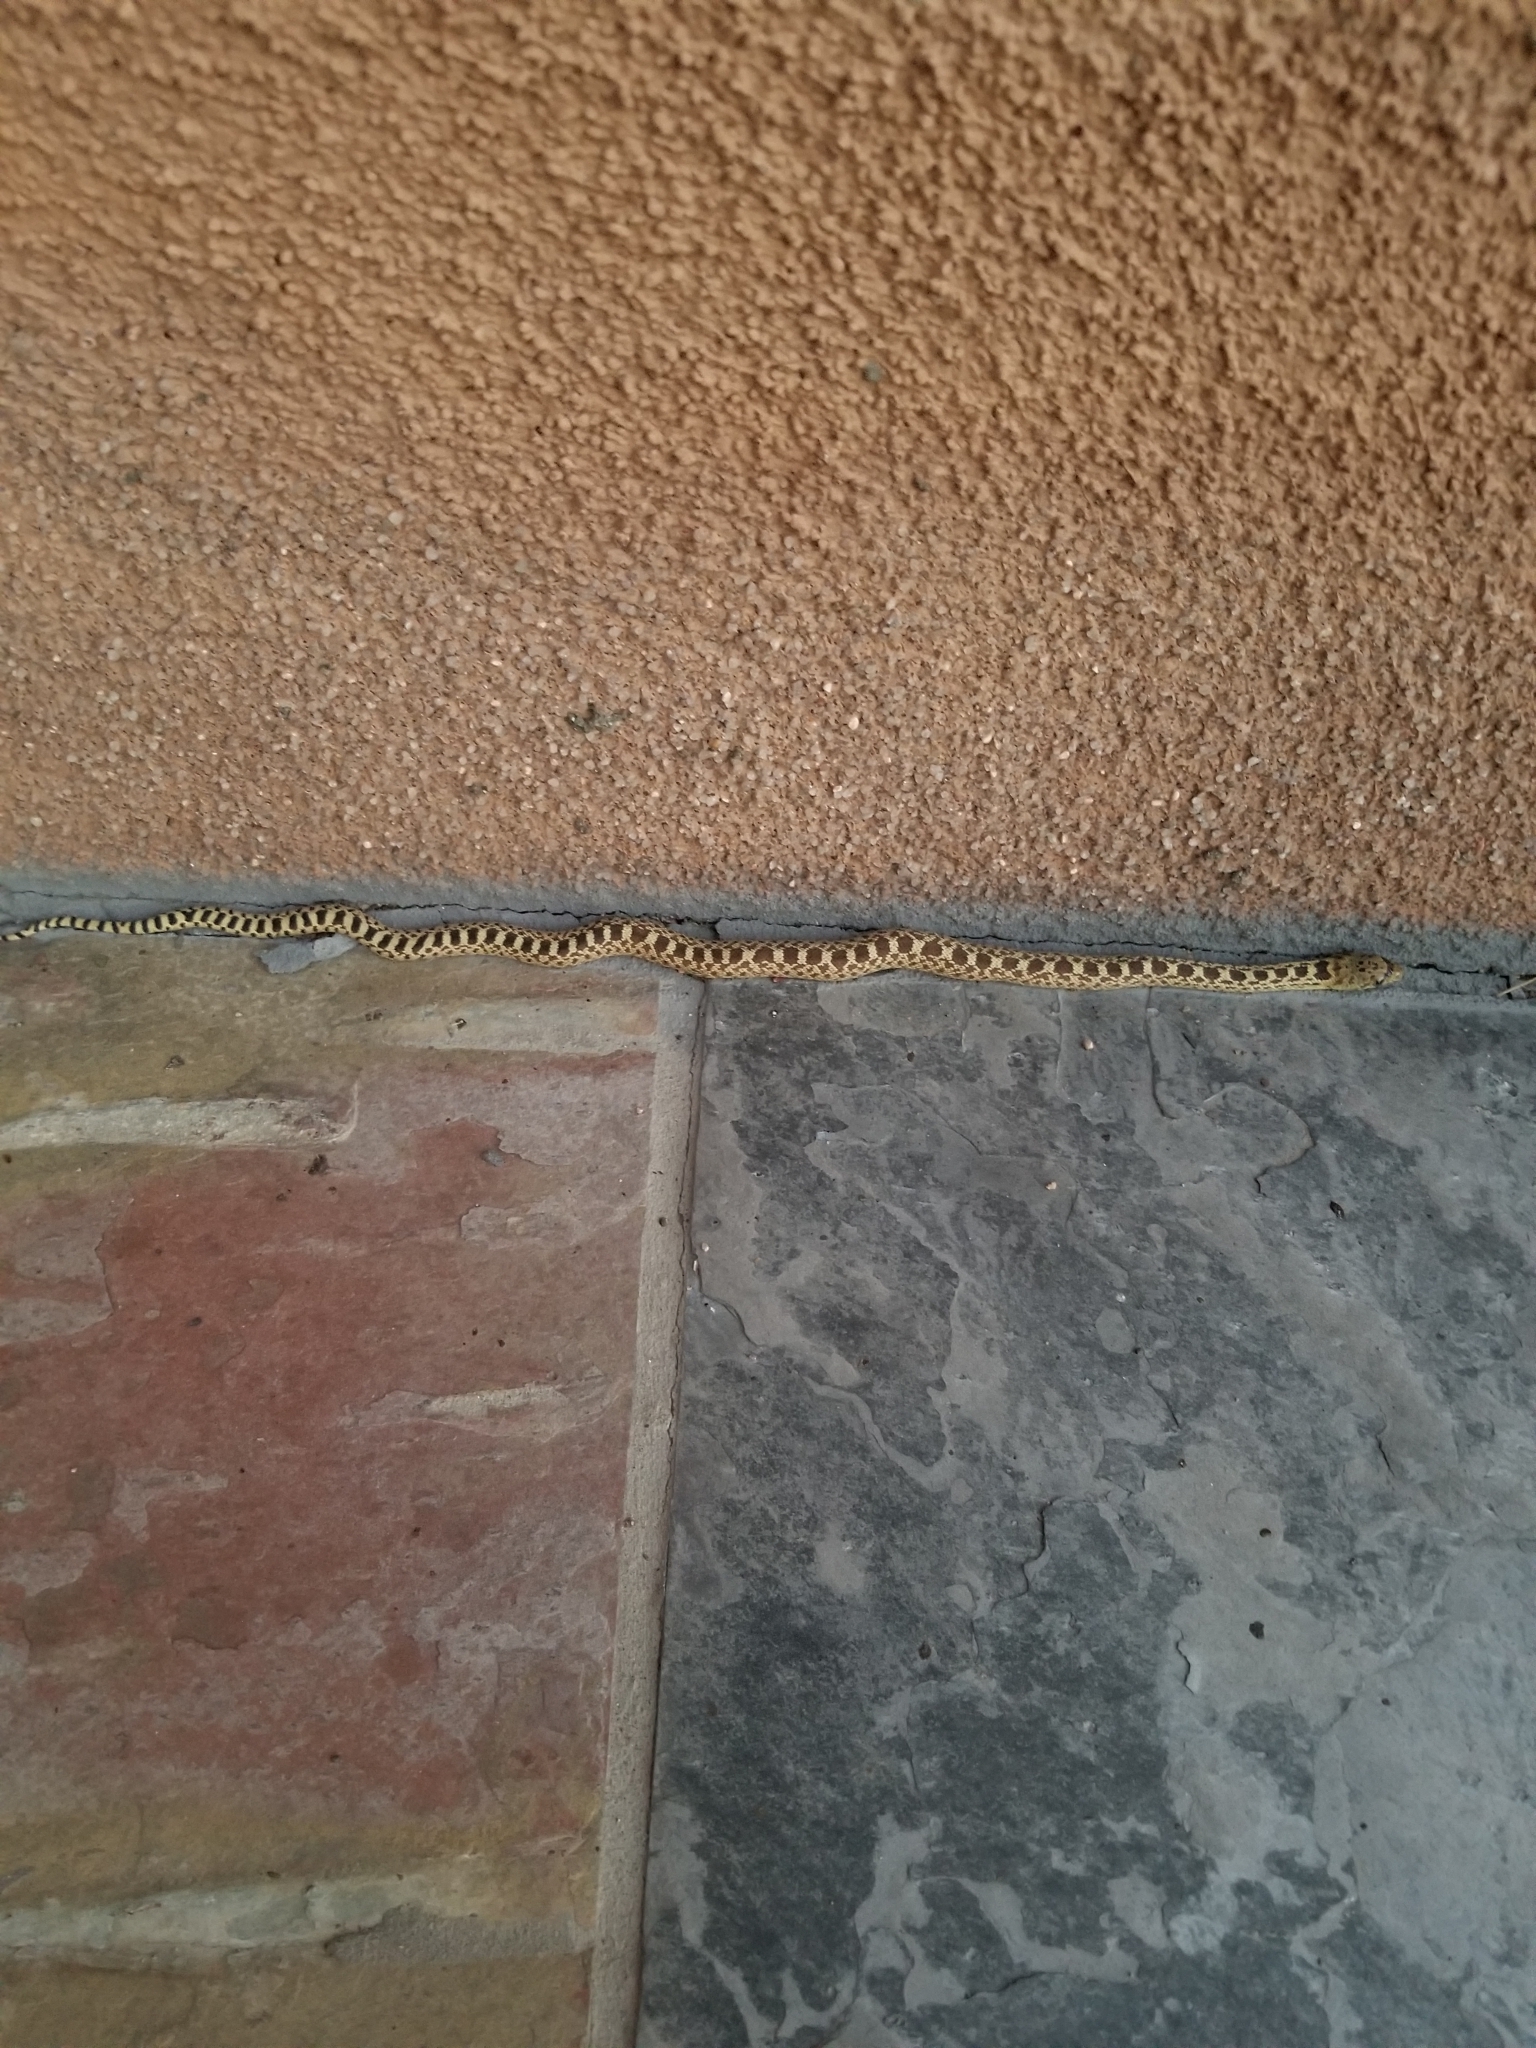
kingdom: Animalia
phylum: Chordata
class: Squamata
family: Colubridae
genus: Pituophis
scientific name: Pituophis catenifer
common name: Gopher snake
